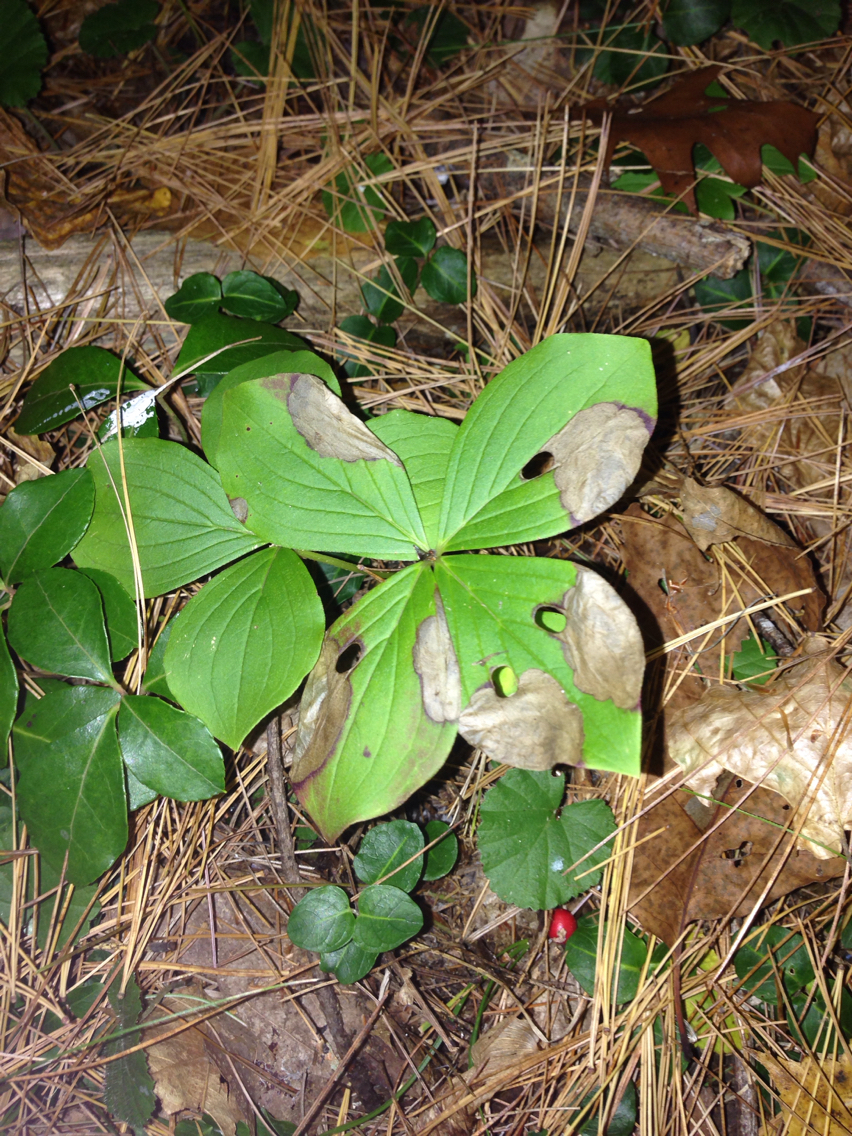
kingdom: Plantae
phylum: Tracheophyta
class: Magnoliopsida
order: Cornales
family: Cornaceae
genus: Cornus
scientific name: Cornus canadensis
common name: Creeping dogwood
